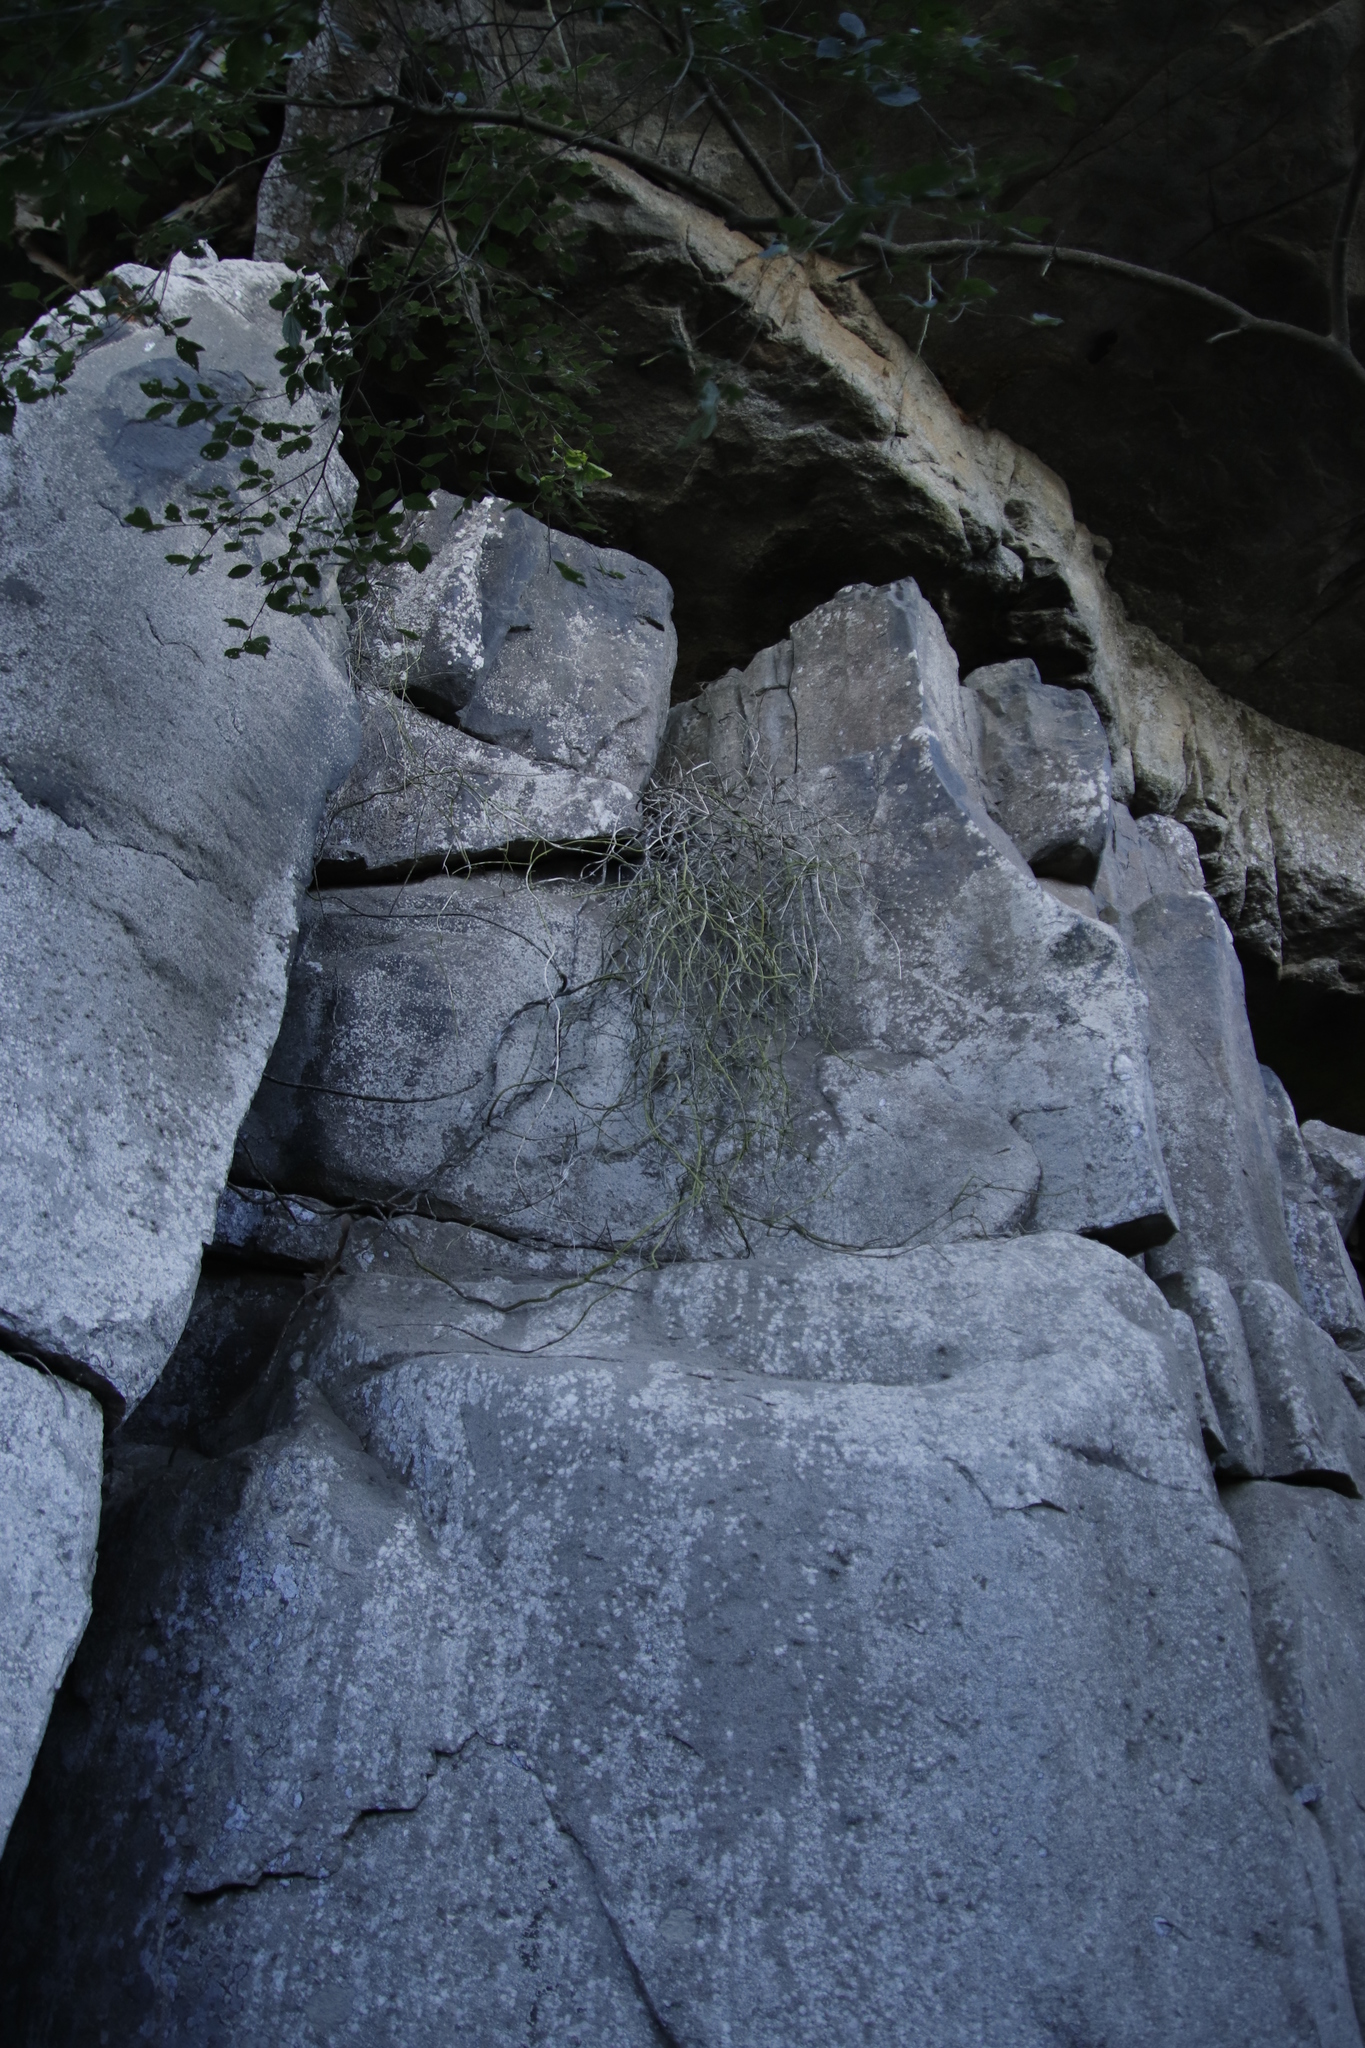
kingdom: Plantae
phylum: Tracheophyta
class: Magnoliopsida
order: Caryophyllales
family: Cactaceae
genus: Rhipsalis
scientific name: Rhipsalis baccifera
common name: Mistletoe cactus
